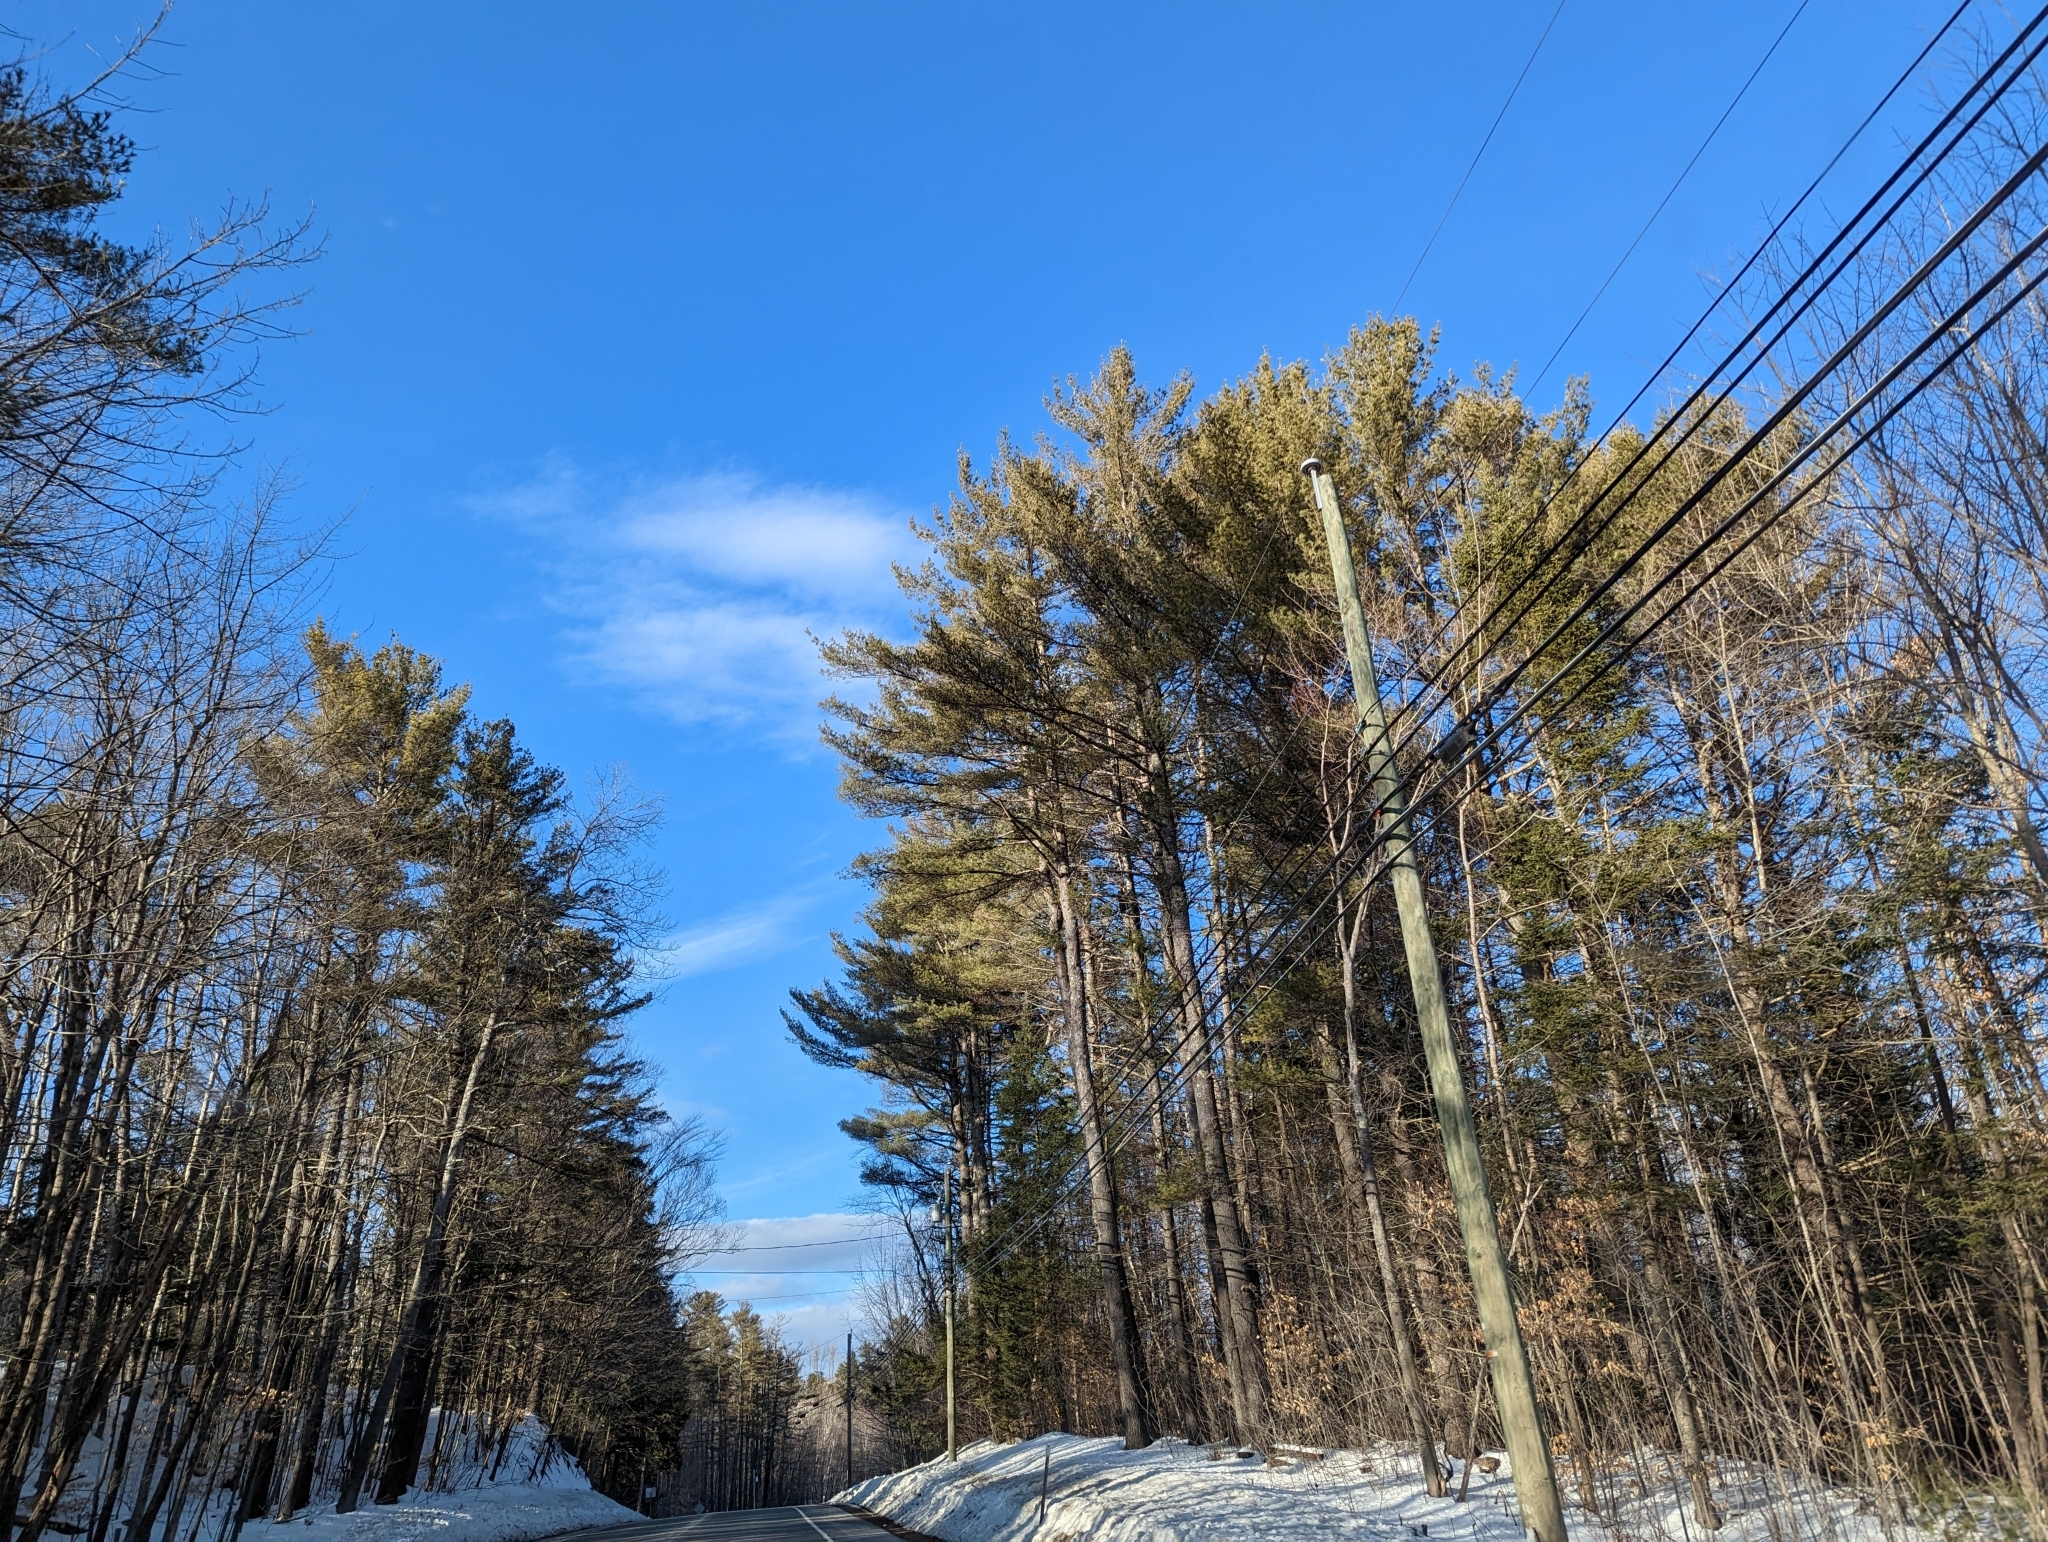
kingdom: Plantae
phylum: Tracheophyta
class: Pinopsida
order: Pinales
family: Pinaceae
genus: Pinus
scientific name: Pinus strobus
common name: Weymouth pine
